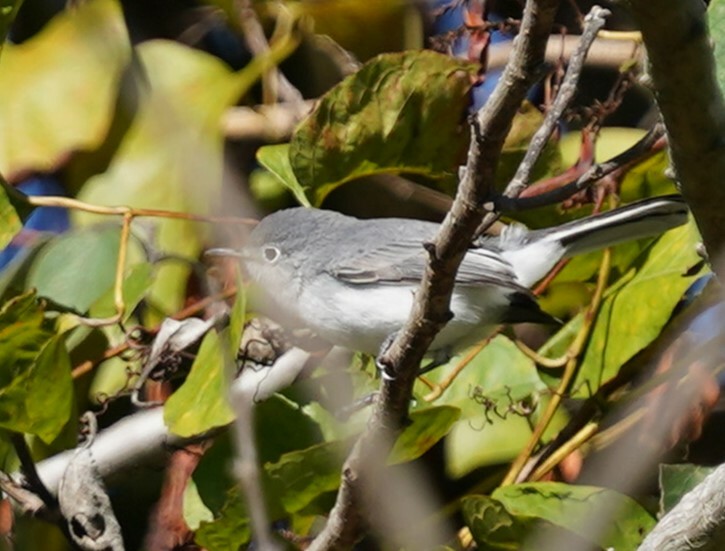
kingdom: Animalia
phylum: Chordata
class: Aves
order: Passeriformes
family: Polioptilidae
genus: Polioptila
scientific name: Polioptila caerulea
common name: Blue-gray gnatcatcher
